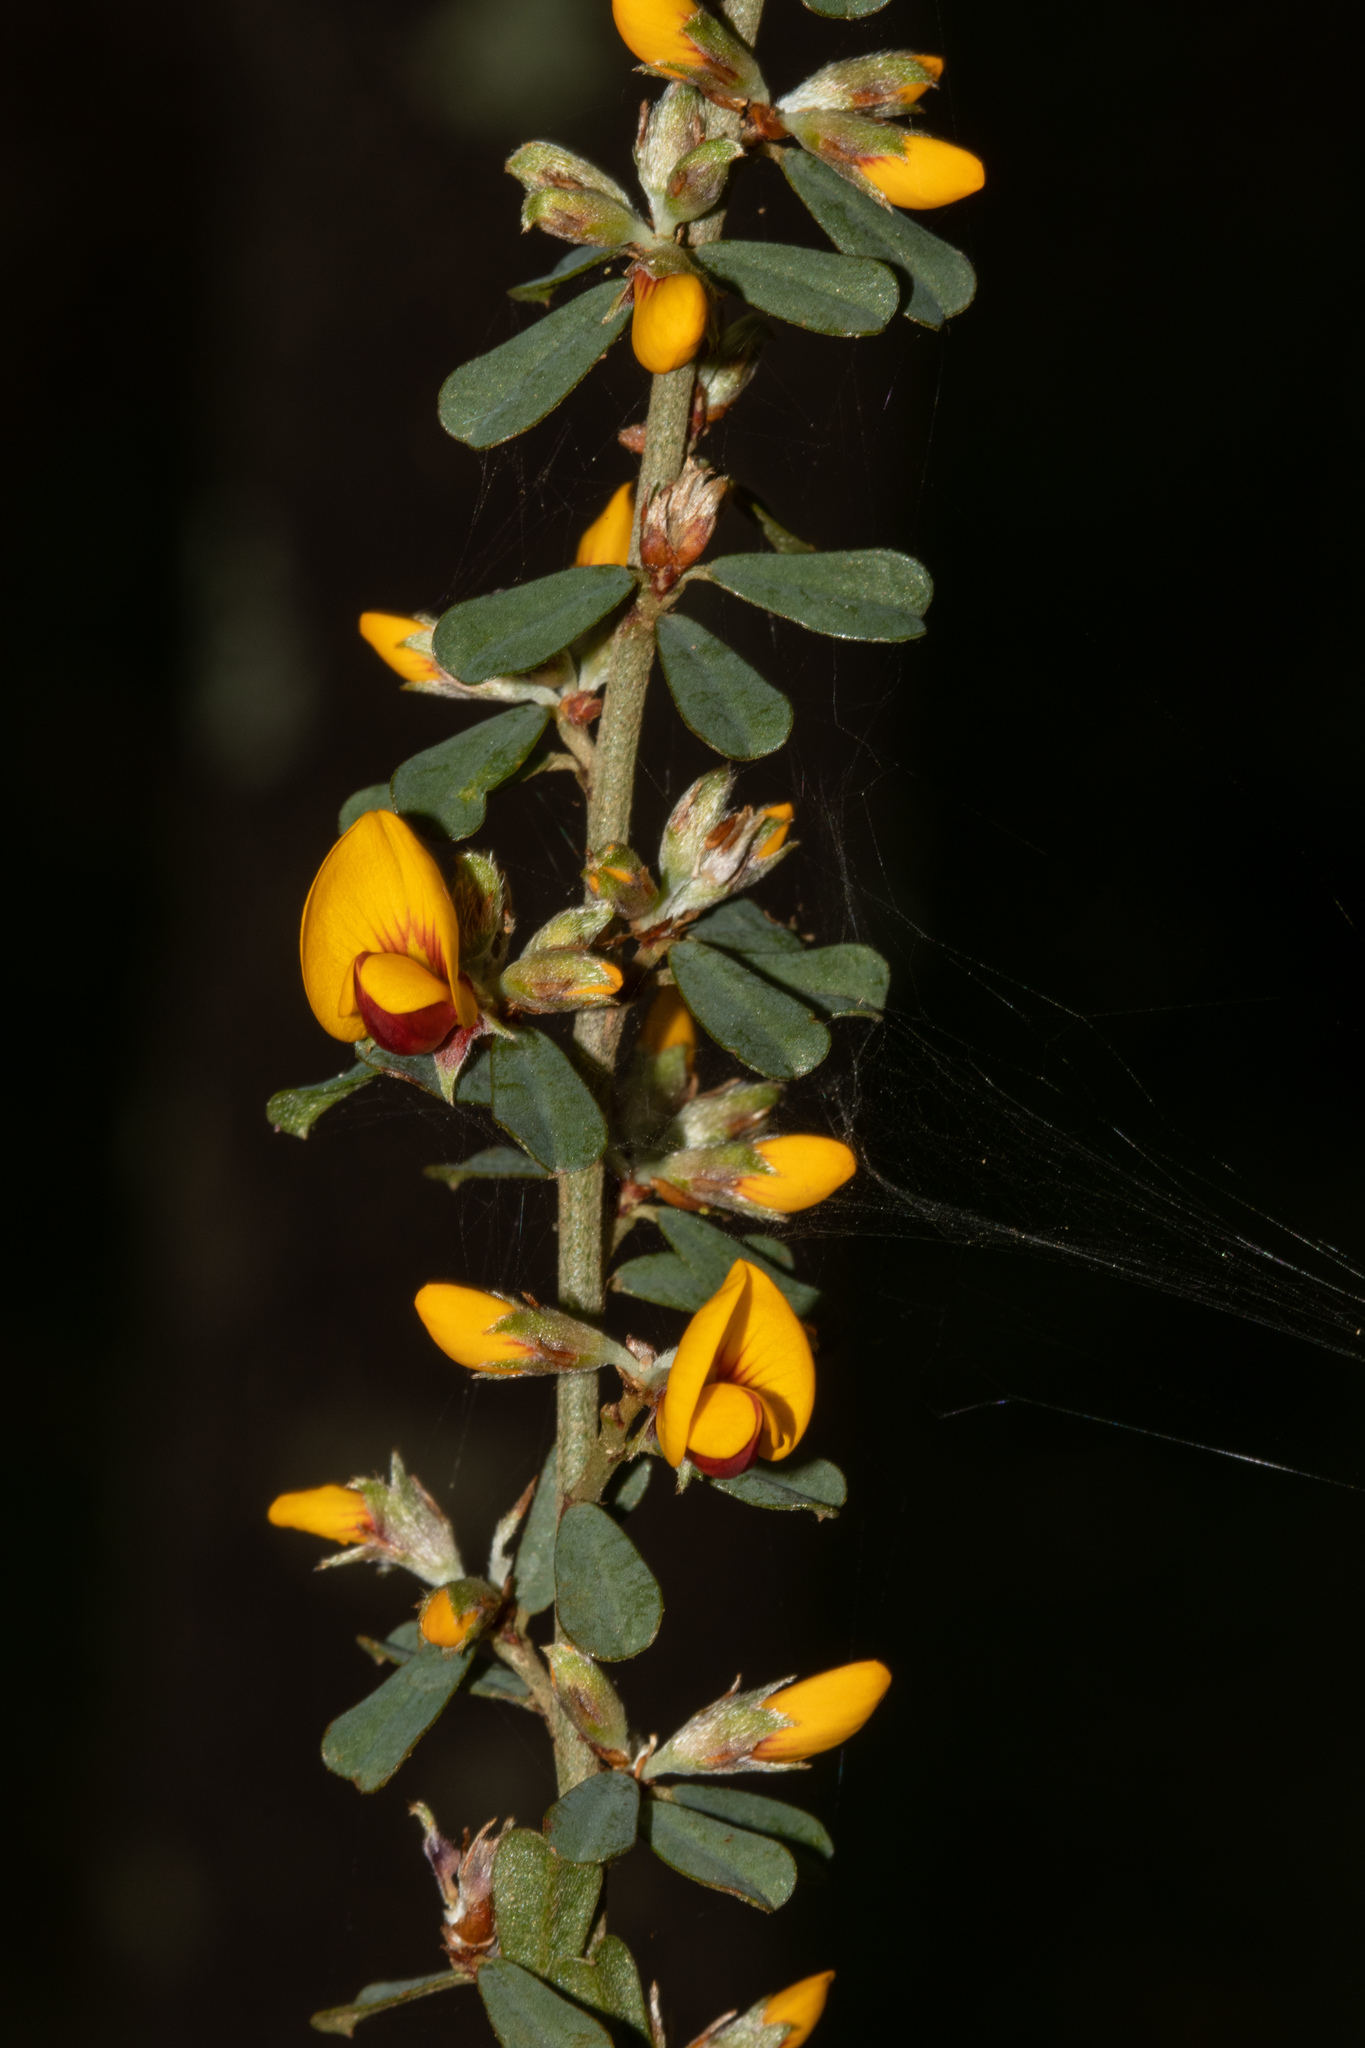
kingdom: Plantae
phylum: Tracheophyta
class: Magnoliopsida
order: Fabales
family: Fabaceae
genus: Pultenaea
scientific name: Pultenaea largiflorens
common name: Twiggy bush-pea
